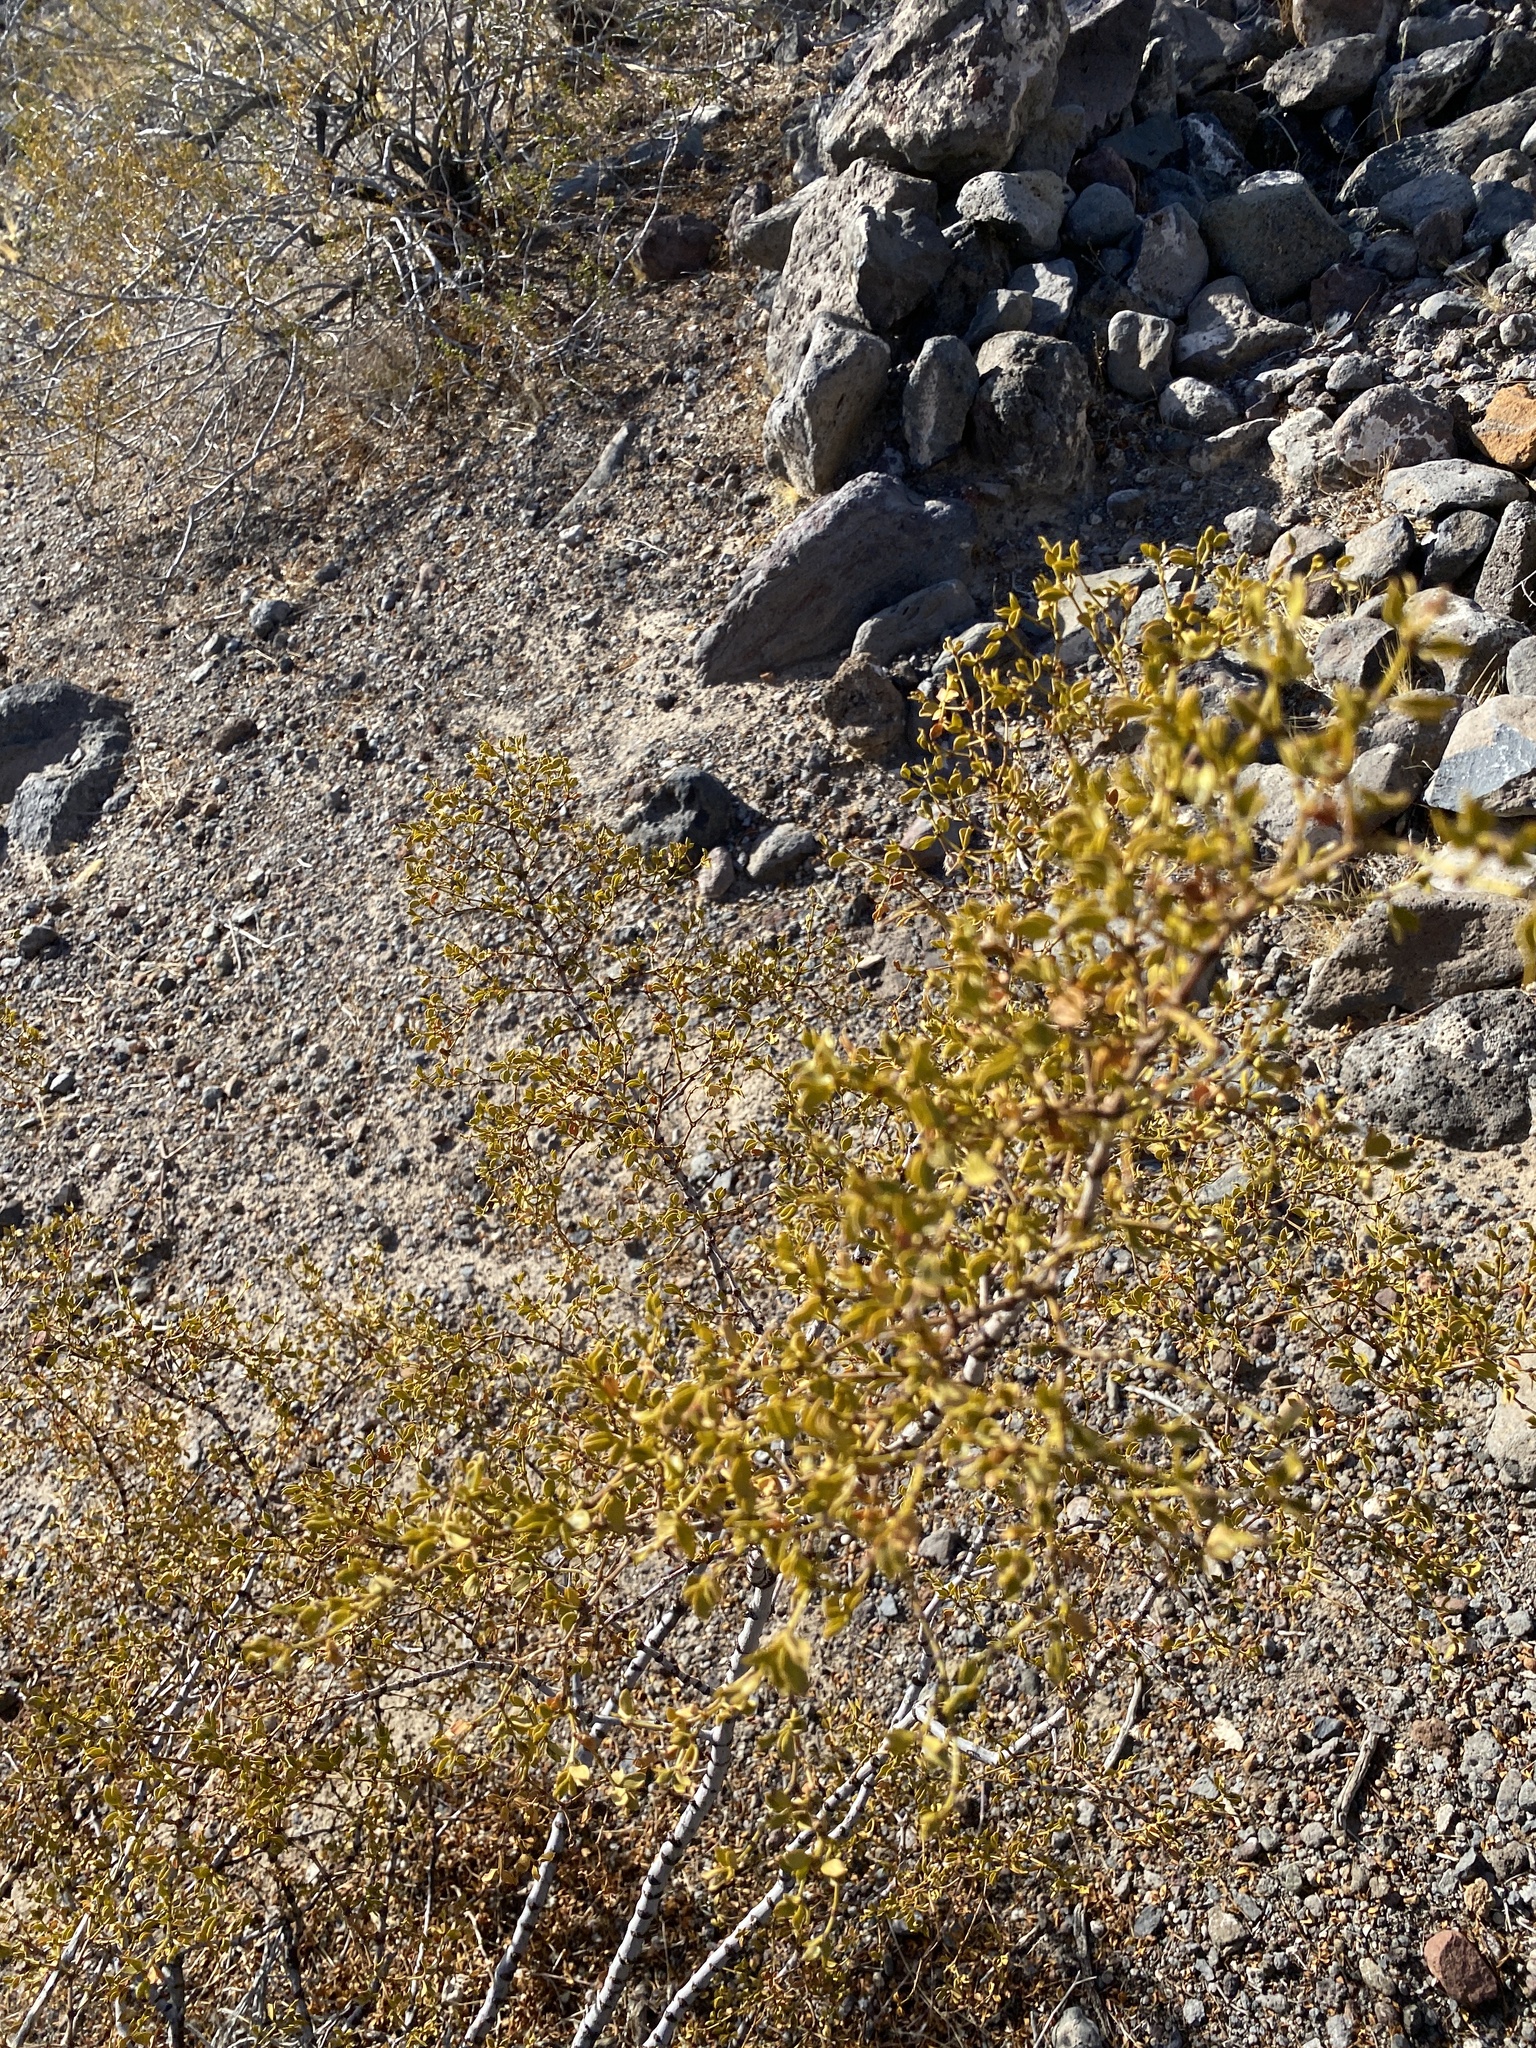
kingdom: Plantae
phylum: Tracheophyta
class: Magnoliopsida
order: Zygophyllales
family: Zygophyllaceae
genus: Larrea
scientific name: Larrea tridentata
